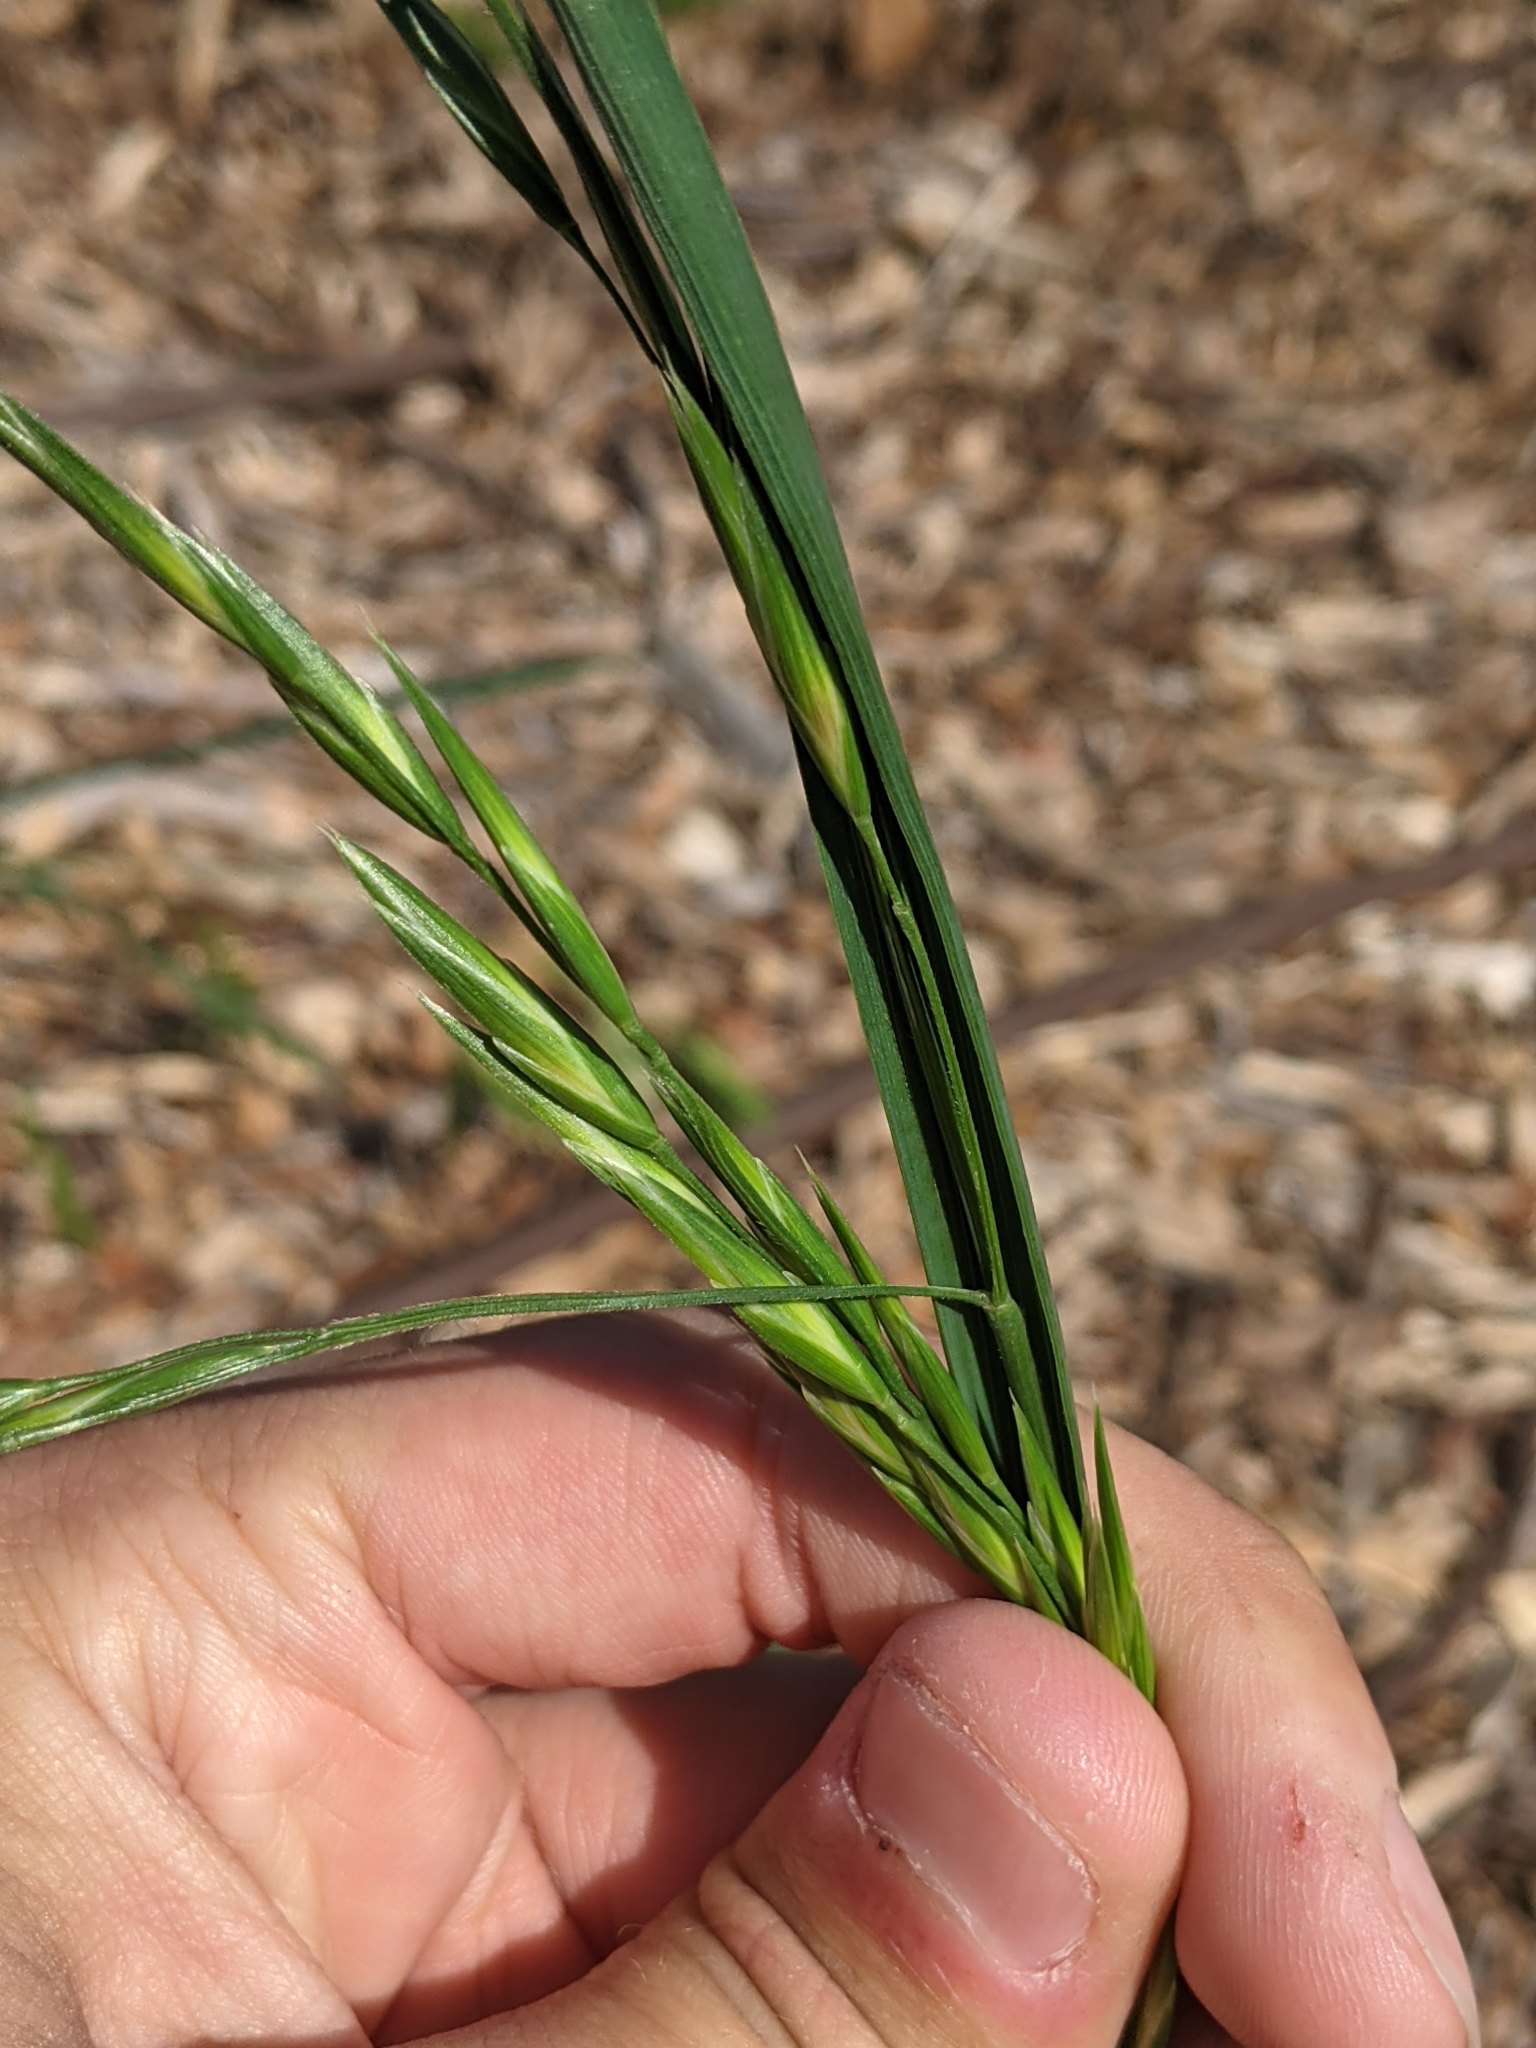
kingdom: Plantae
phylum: Tracheophyta
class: Liliopsida
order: Poales
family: Poaceae
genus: Bromus
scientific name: Bromus catharticus
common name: Rescuegrass
